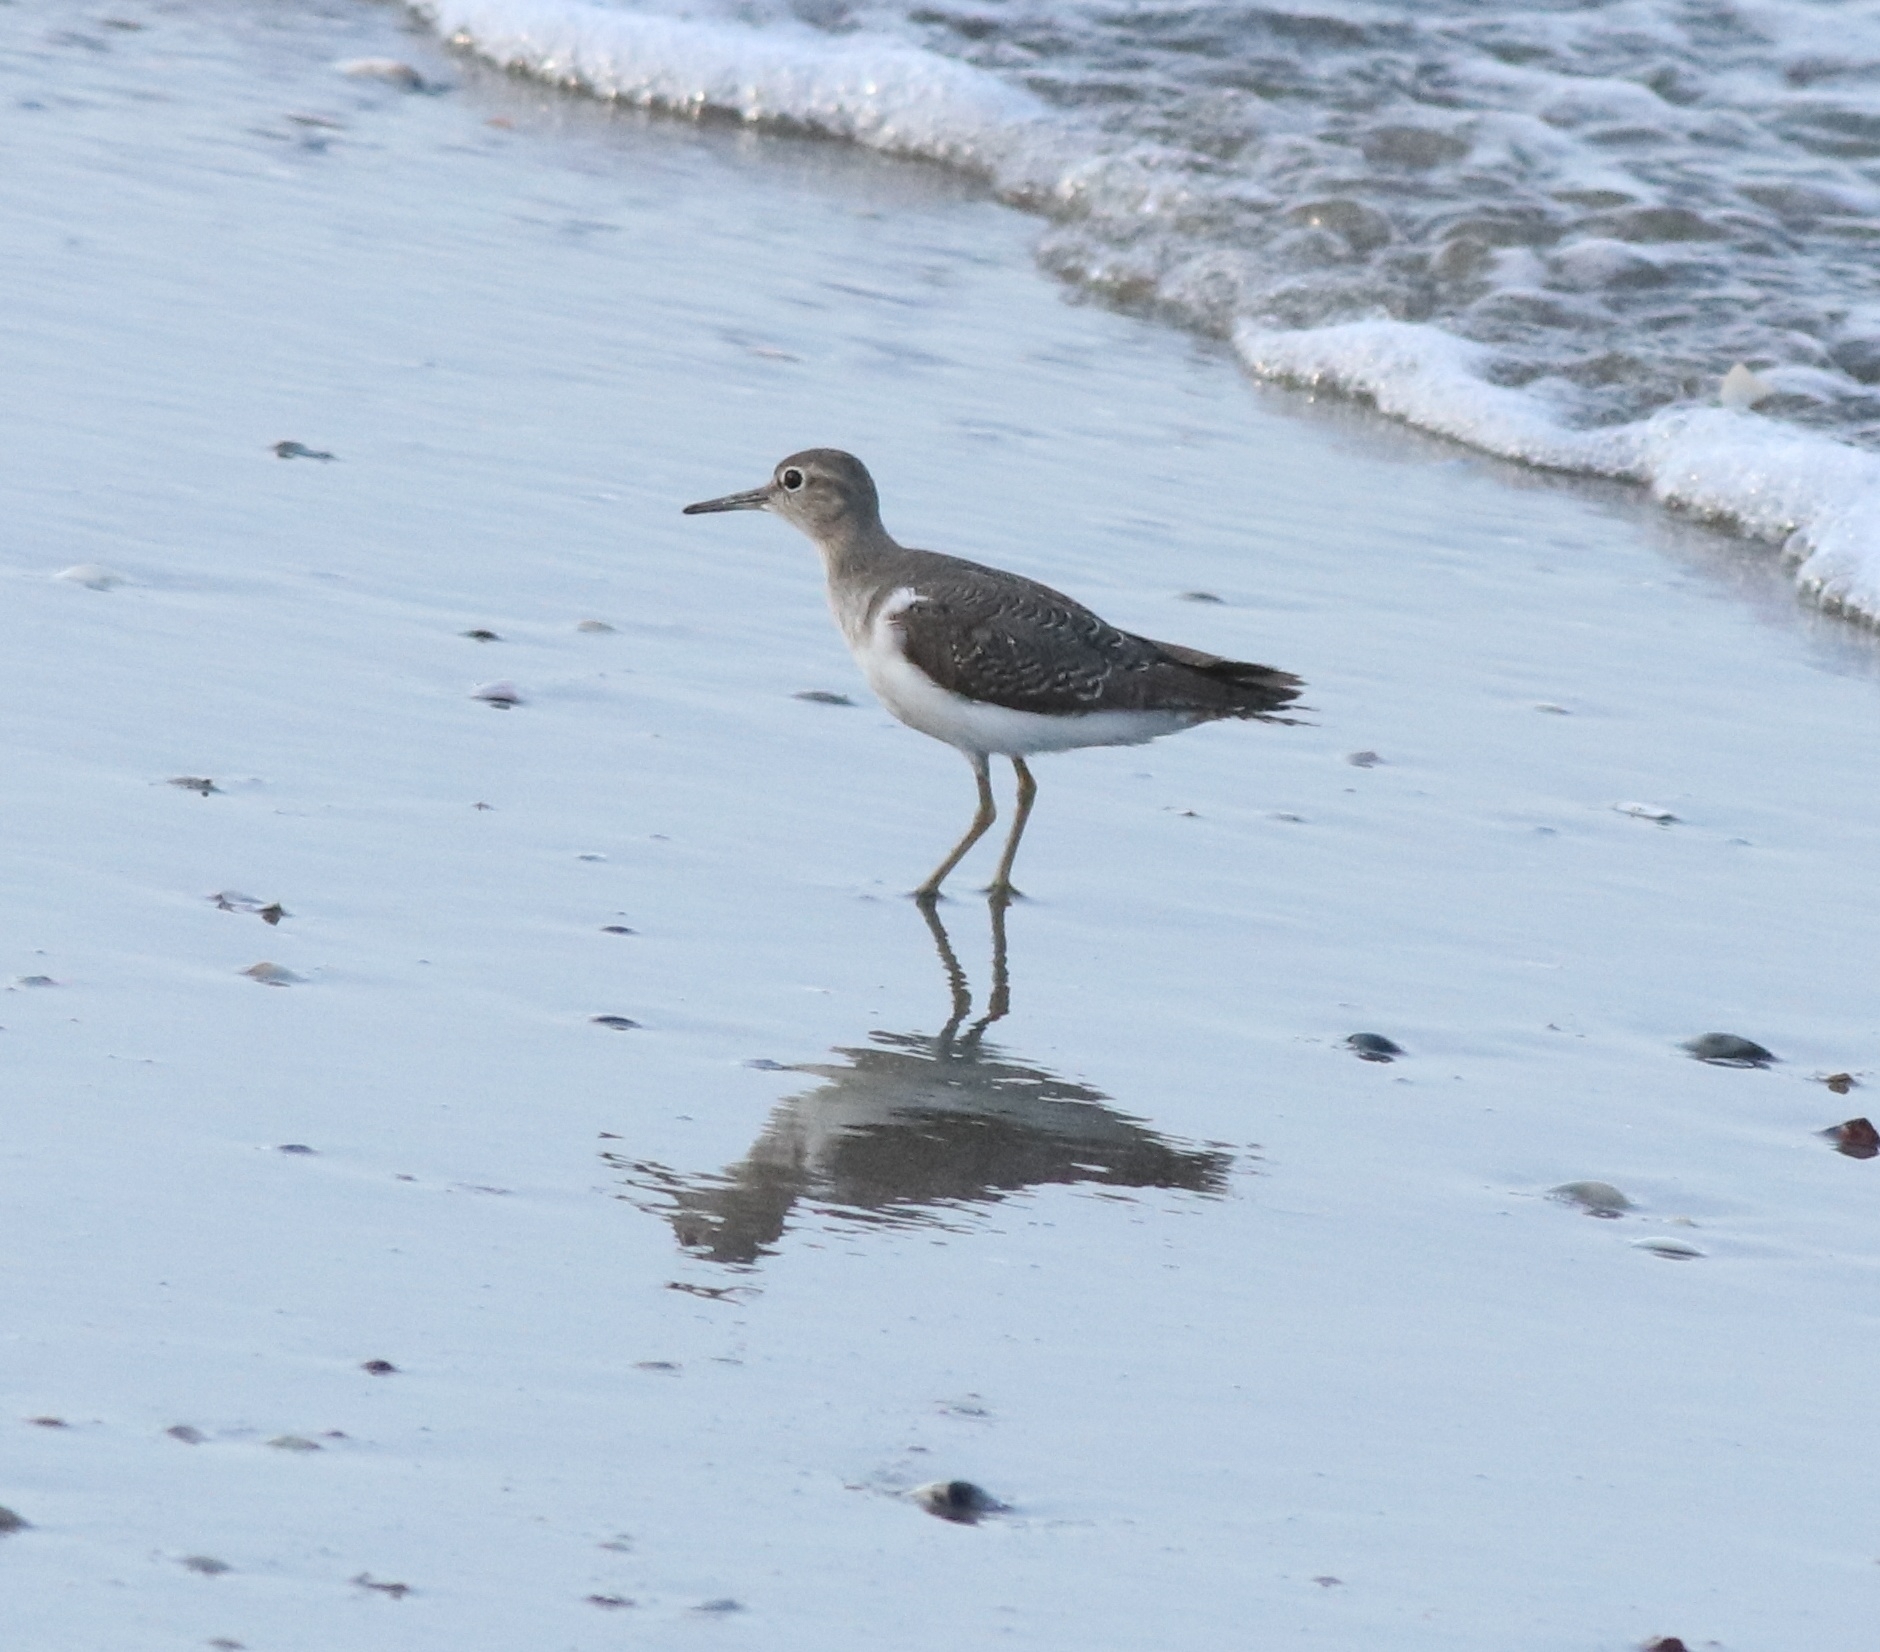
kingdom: Animalia
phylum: Chordata
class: Aves
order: Charadriiformes
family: Scolopacidae
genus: Actitis
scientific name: Actitis hypoleucos
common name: Common sandpiper
